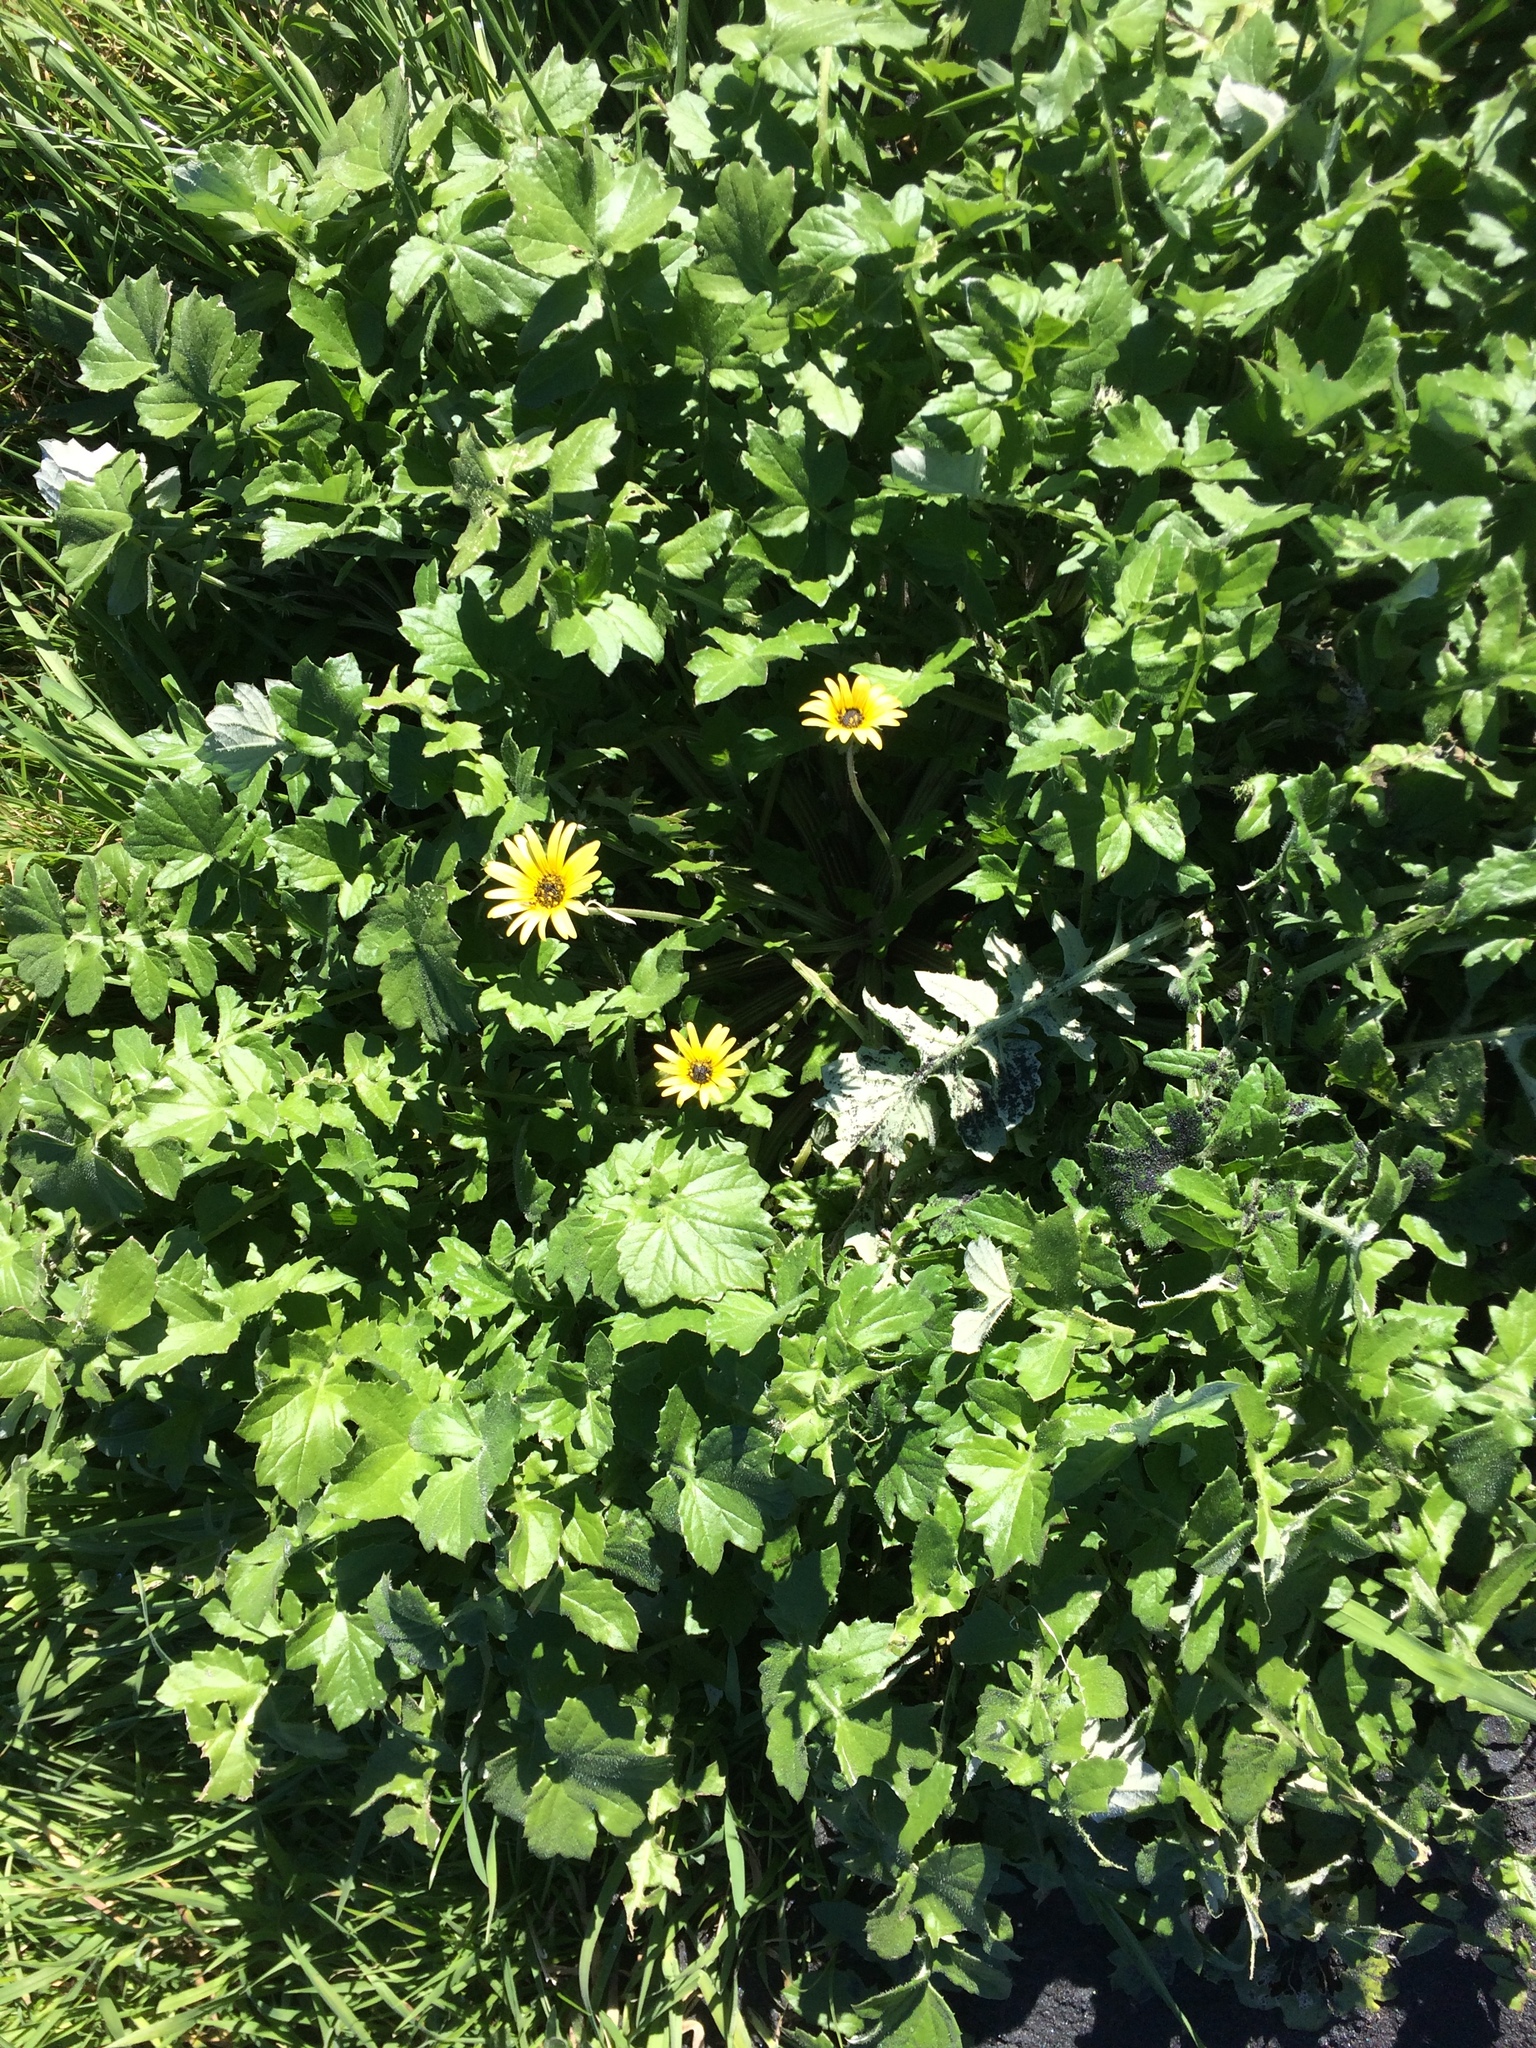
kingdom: Plantae
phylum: Tracheophyta
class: Magnoliopsida
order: Asterales
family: Asteraceae
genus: Arctotheca
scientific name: Arctotheca calendula
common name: Capeweed
